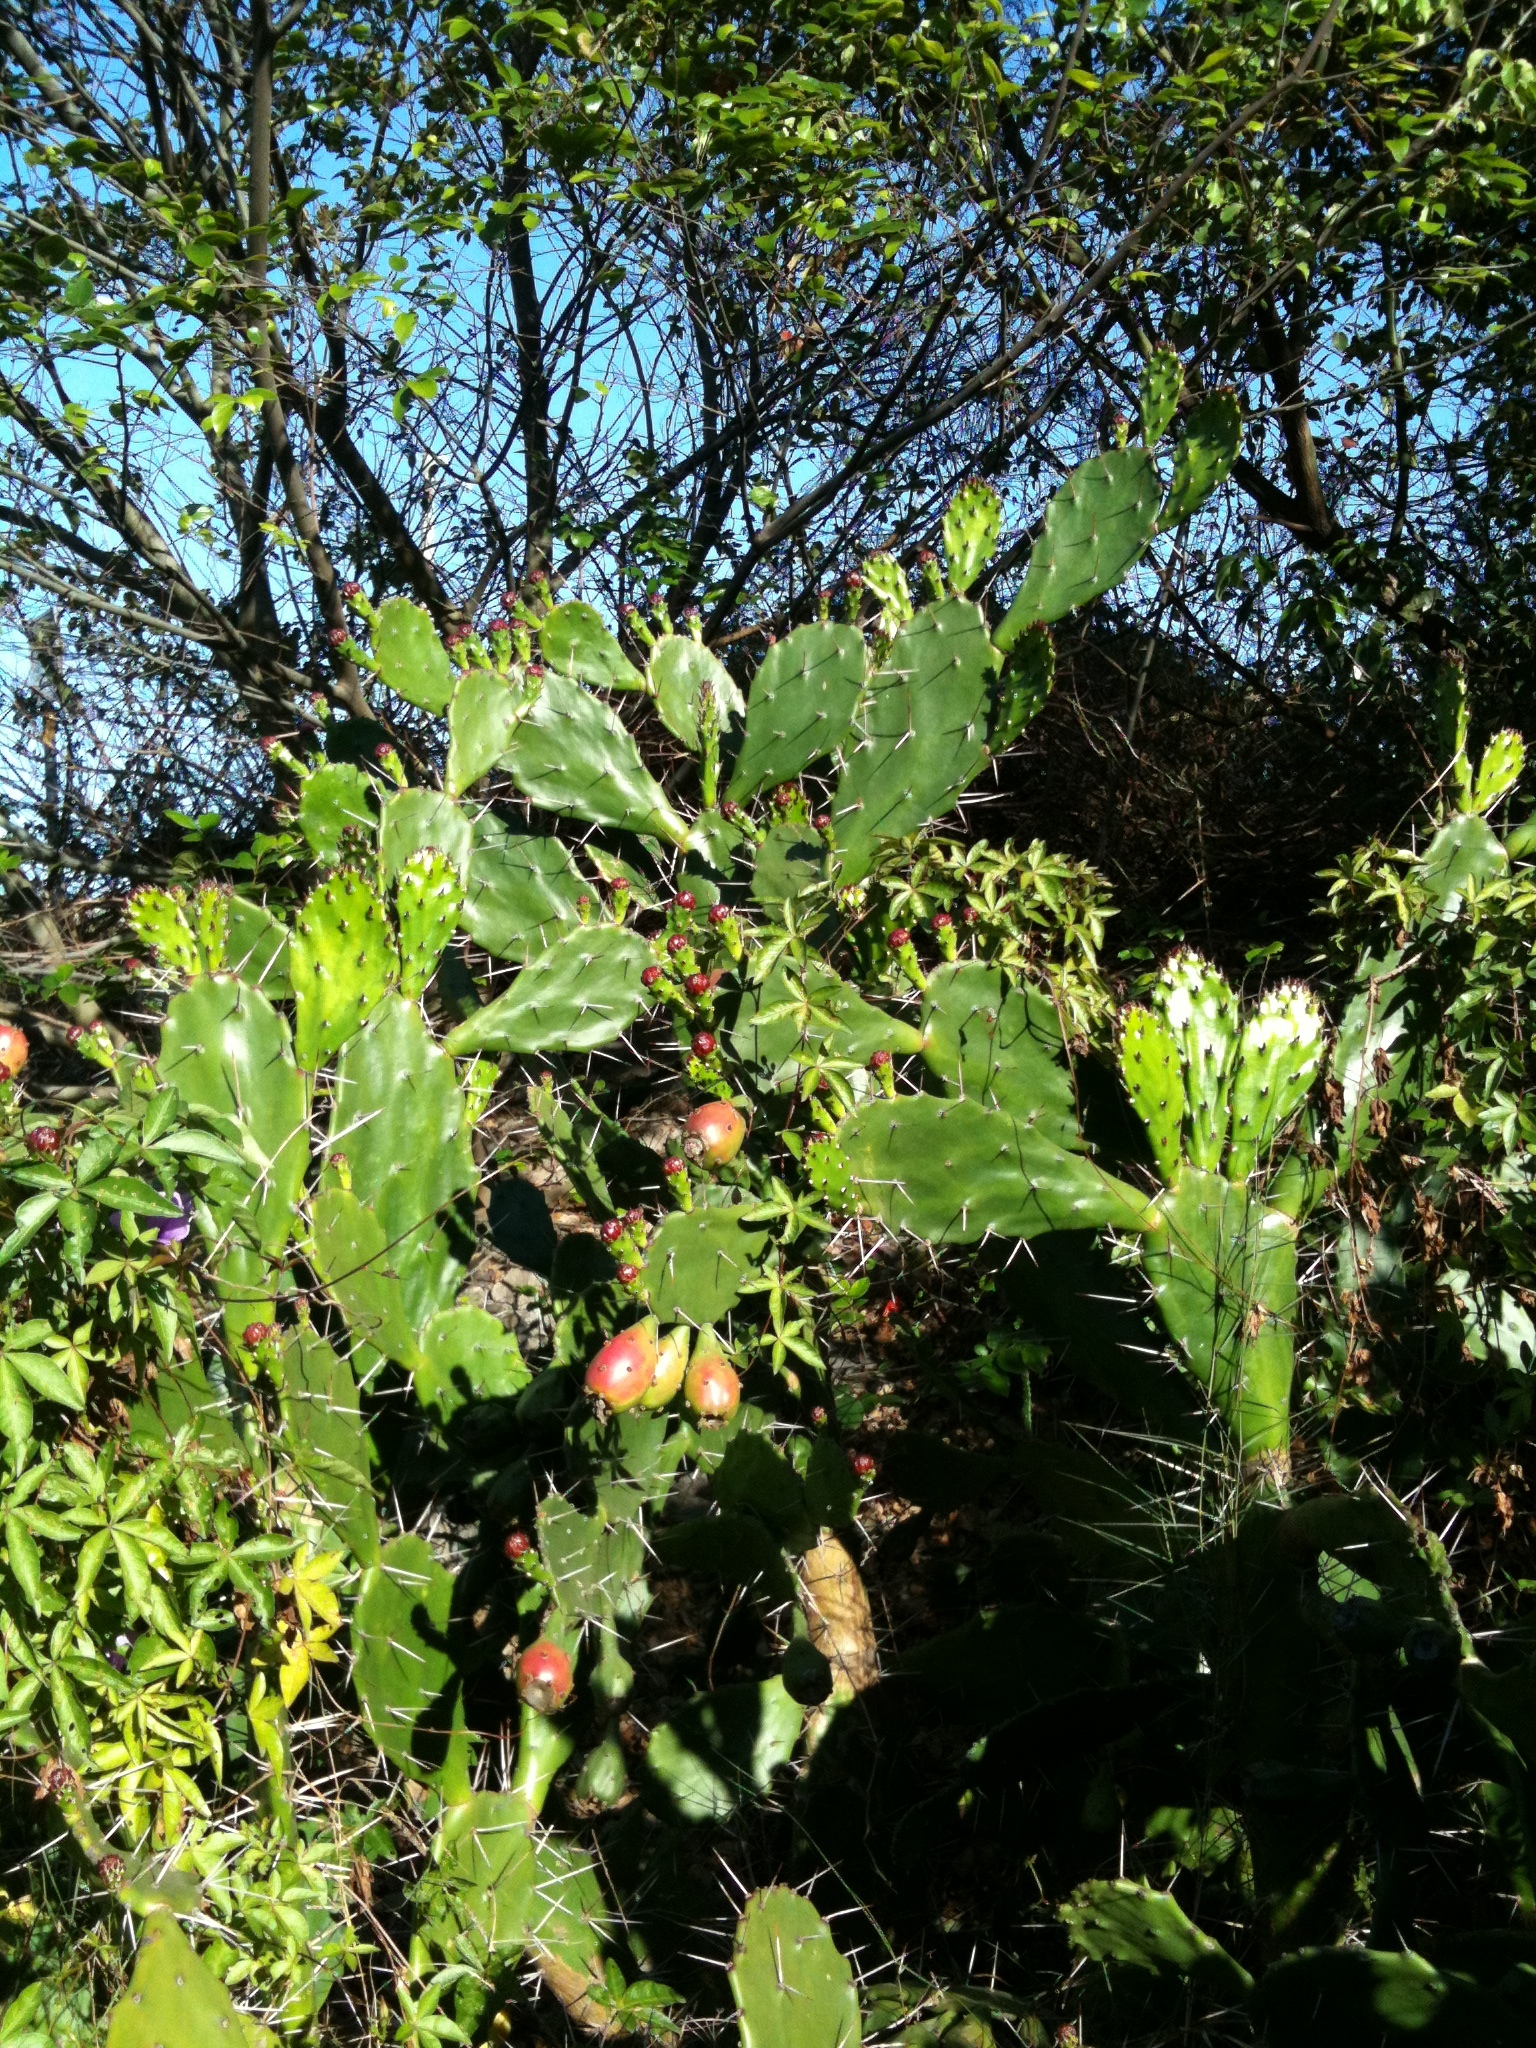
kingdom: Plantae
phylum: Tracheophyta
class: Magnoliopsida
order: Caryophyllales
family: Cactaceae
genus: Opuntia
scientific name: Opuntia monacantha
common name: Common pricklypear
